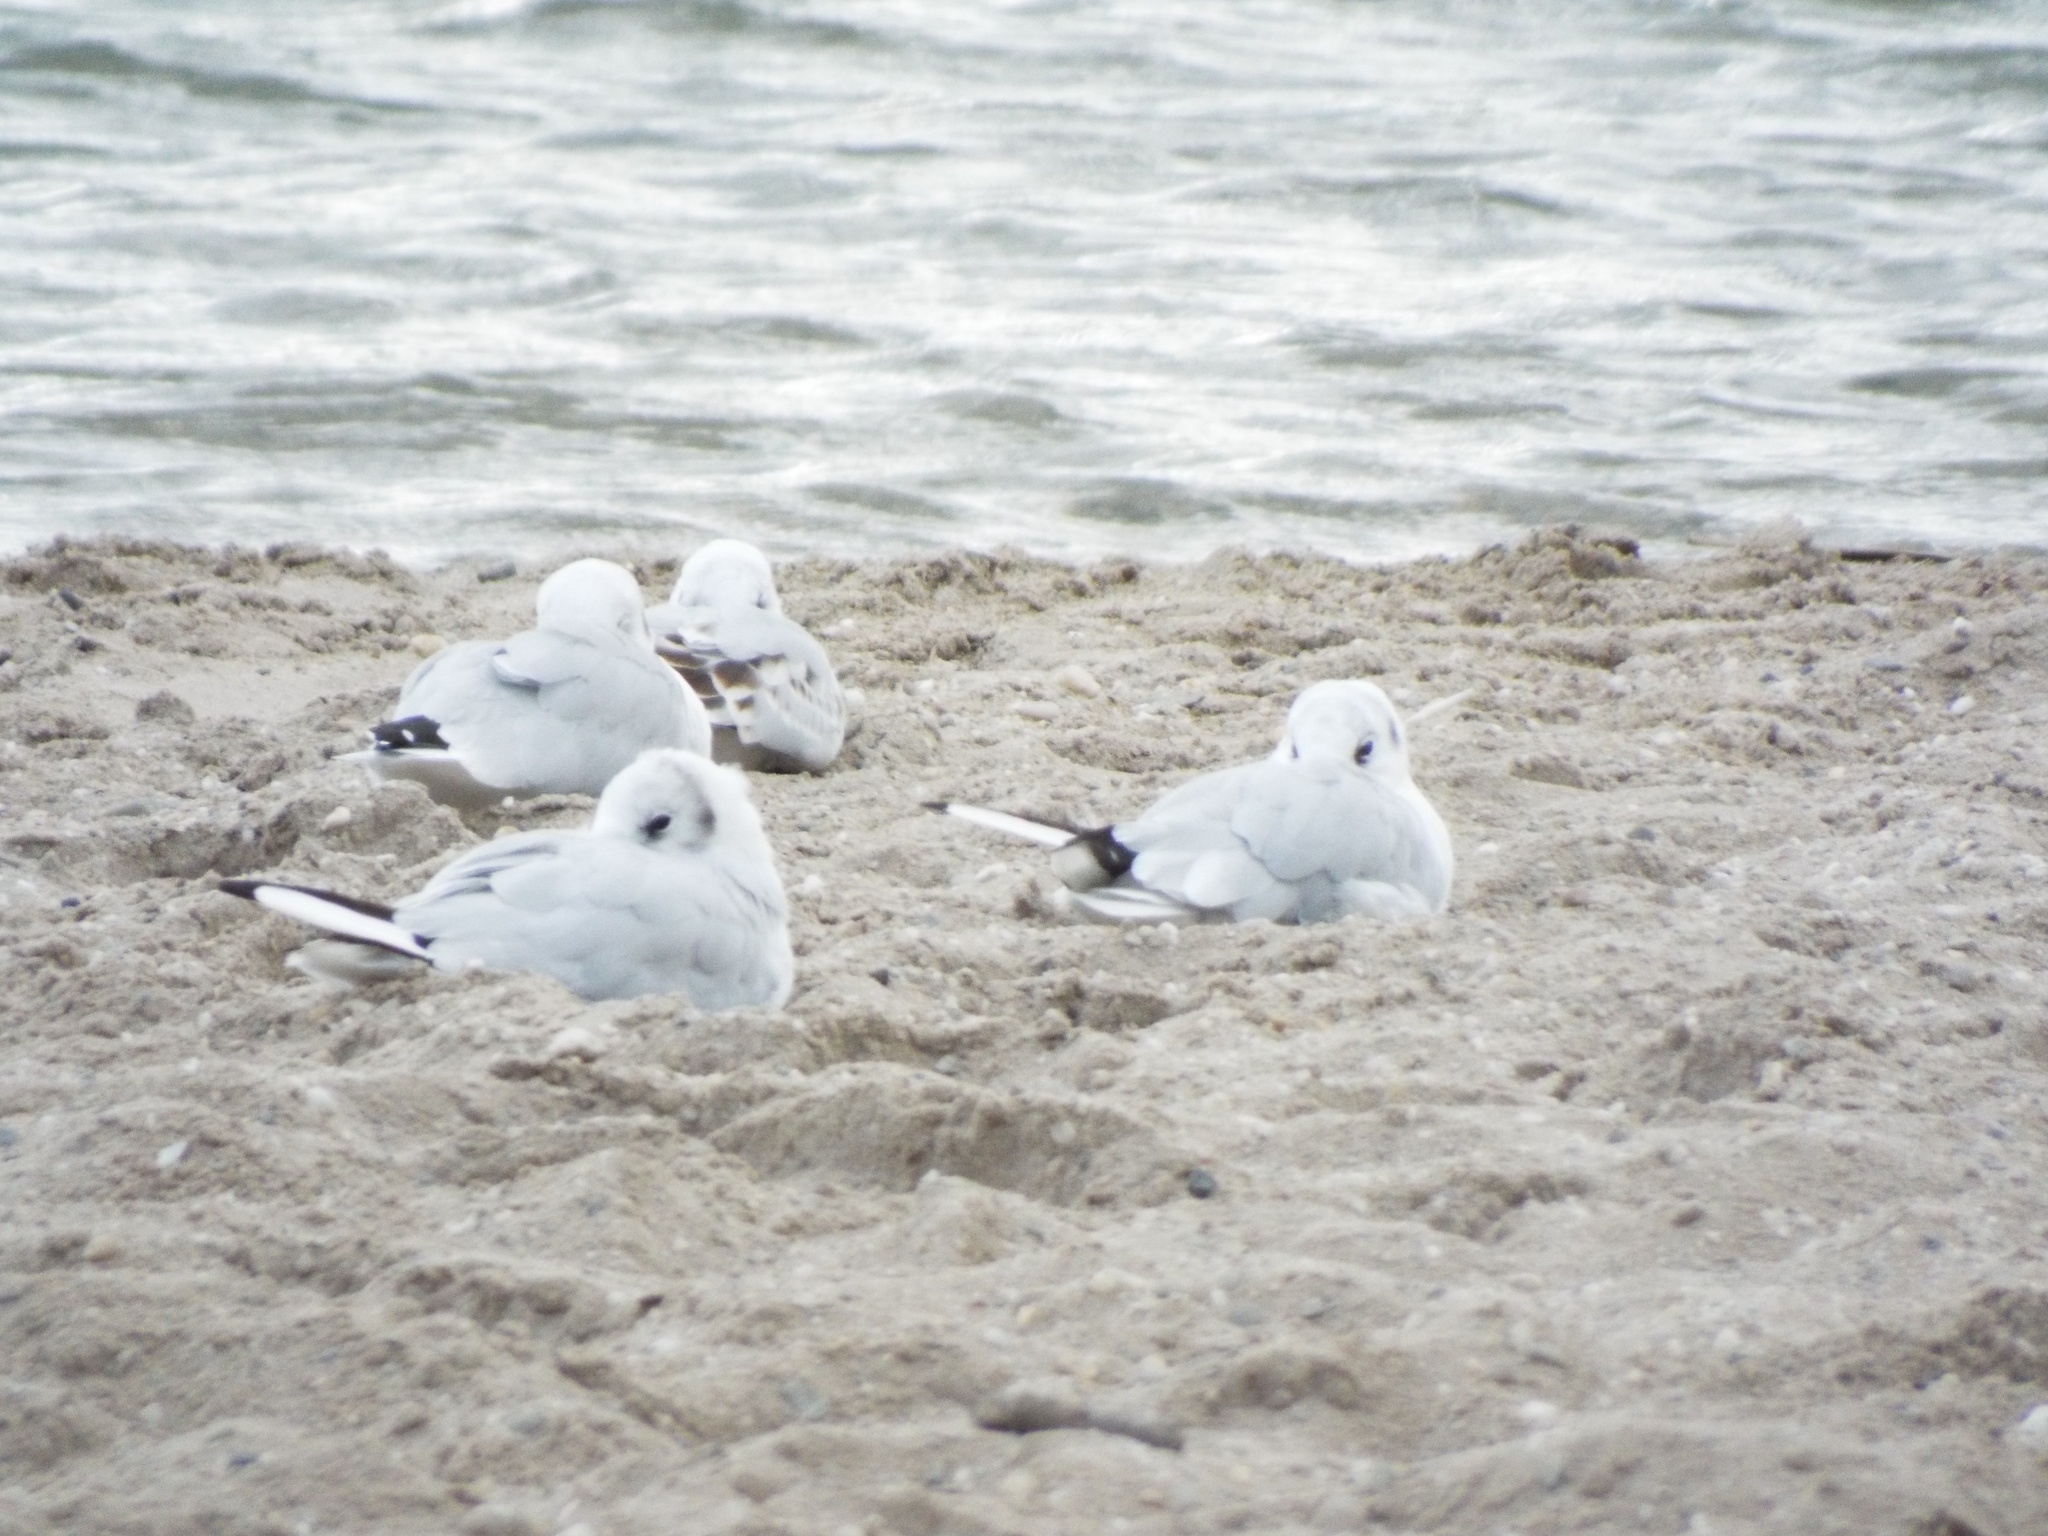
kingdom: Animalia
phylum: Chordata
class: Aves
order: Charadriiformes
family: Laridae
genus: Chroicocephalus
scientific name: Chroicocephalus ridibundus
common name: Black-headed gull
